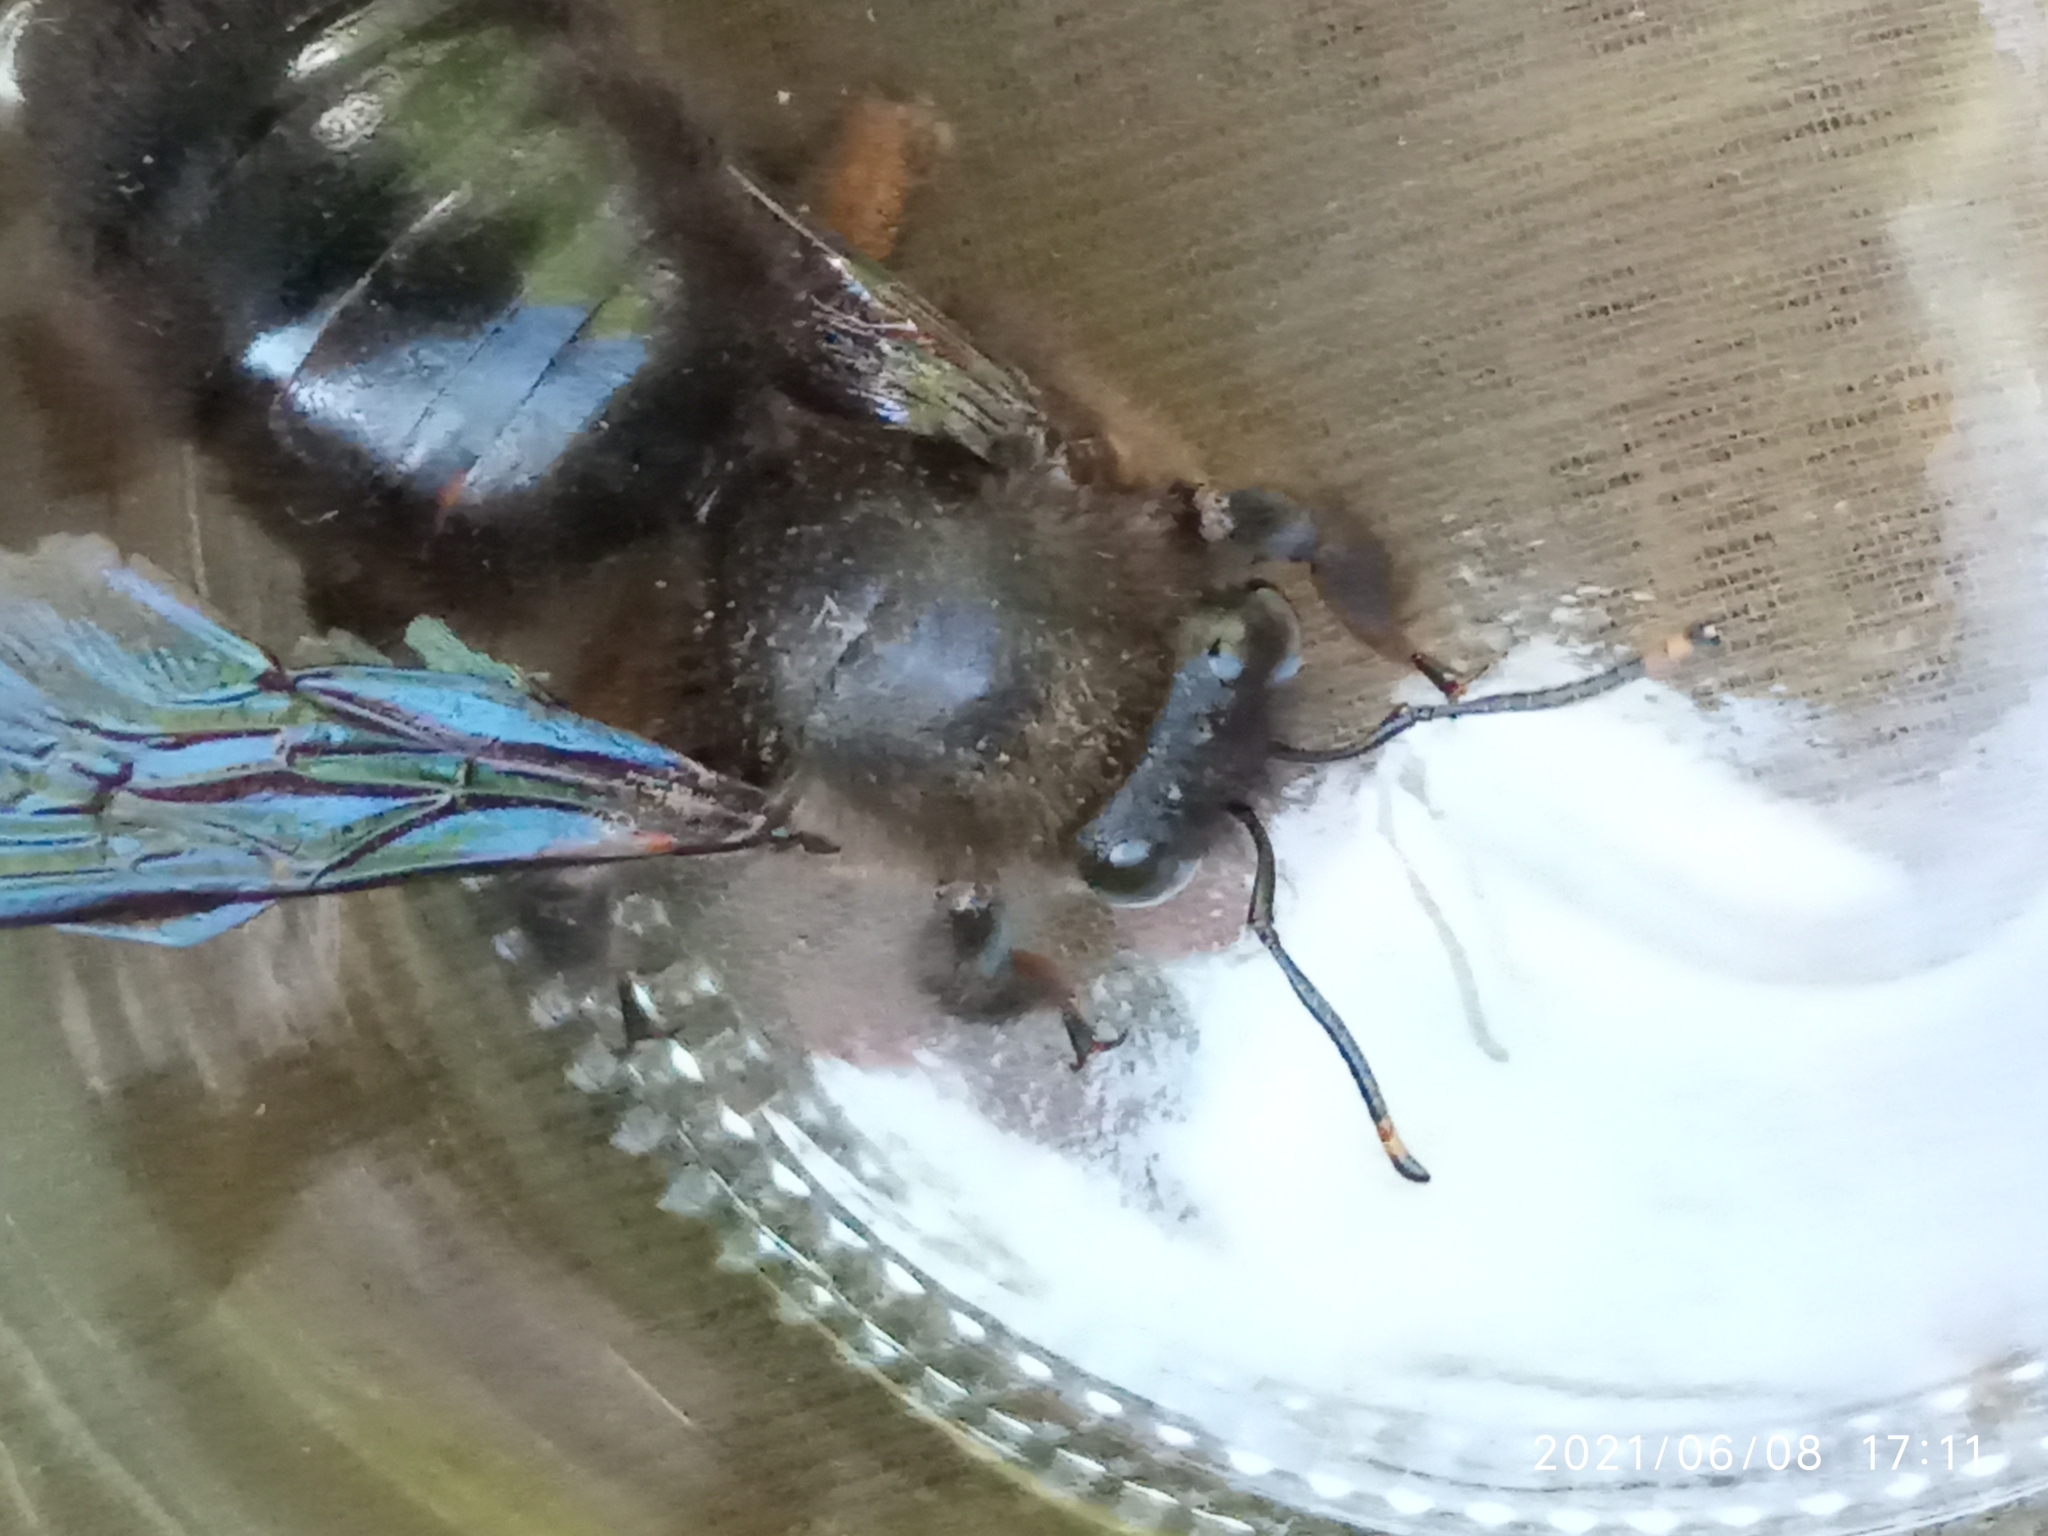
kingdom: Animalia
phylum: Arthropoda
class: Insecta
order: Hymenoptera
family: Apidae
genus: Xylocopa
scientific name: Xylocopa violacea
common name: Violet carpenter bee
